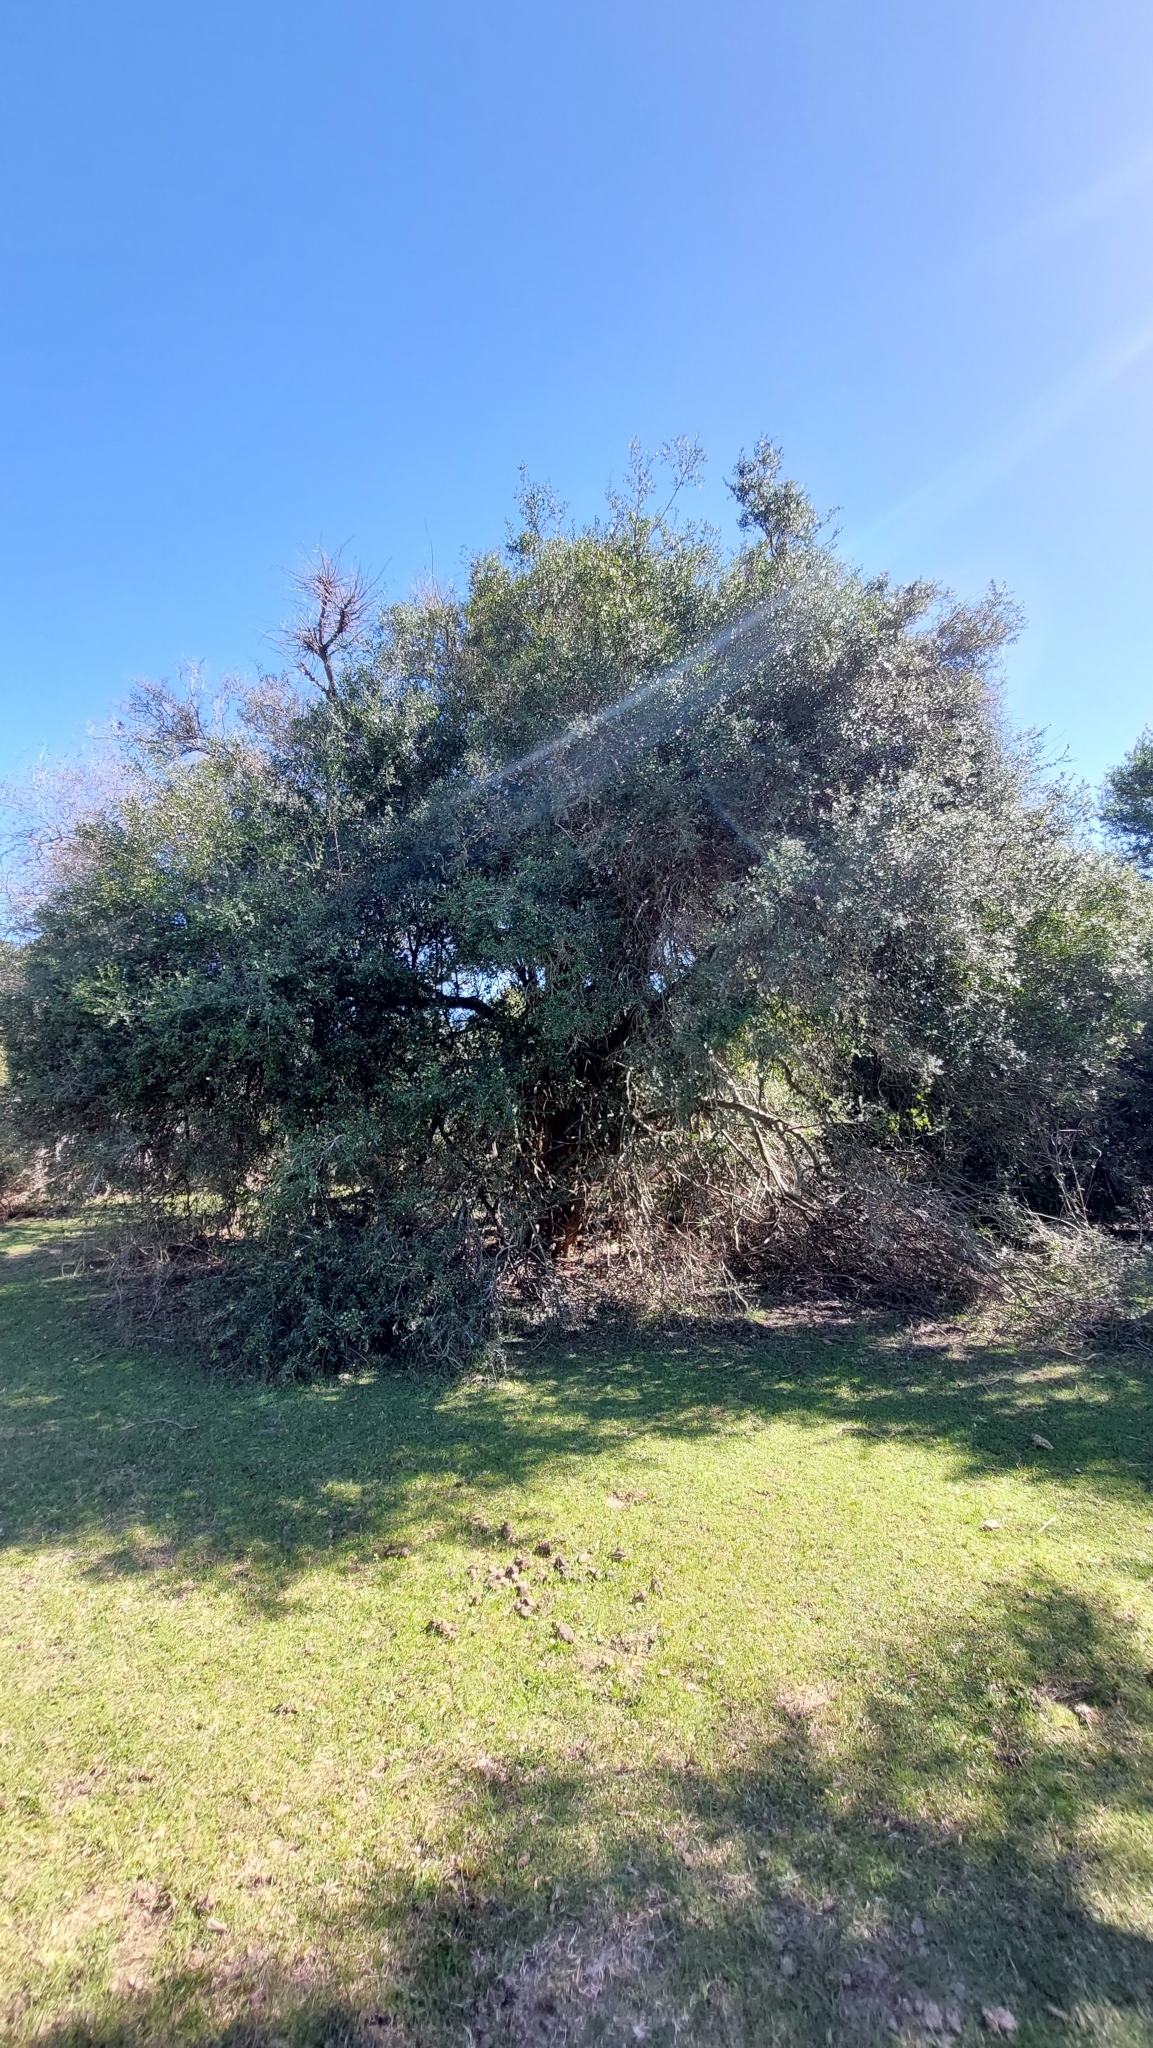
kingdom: Plantae
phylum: Tracheophyta
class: Magnoliopsida
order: Rosales
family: Rhamnaceae
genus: Scutia
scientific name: Scutia buxifolia
